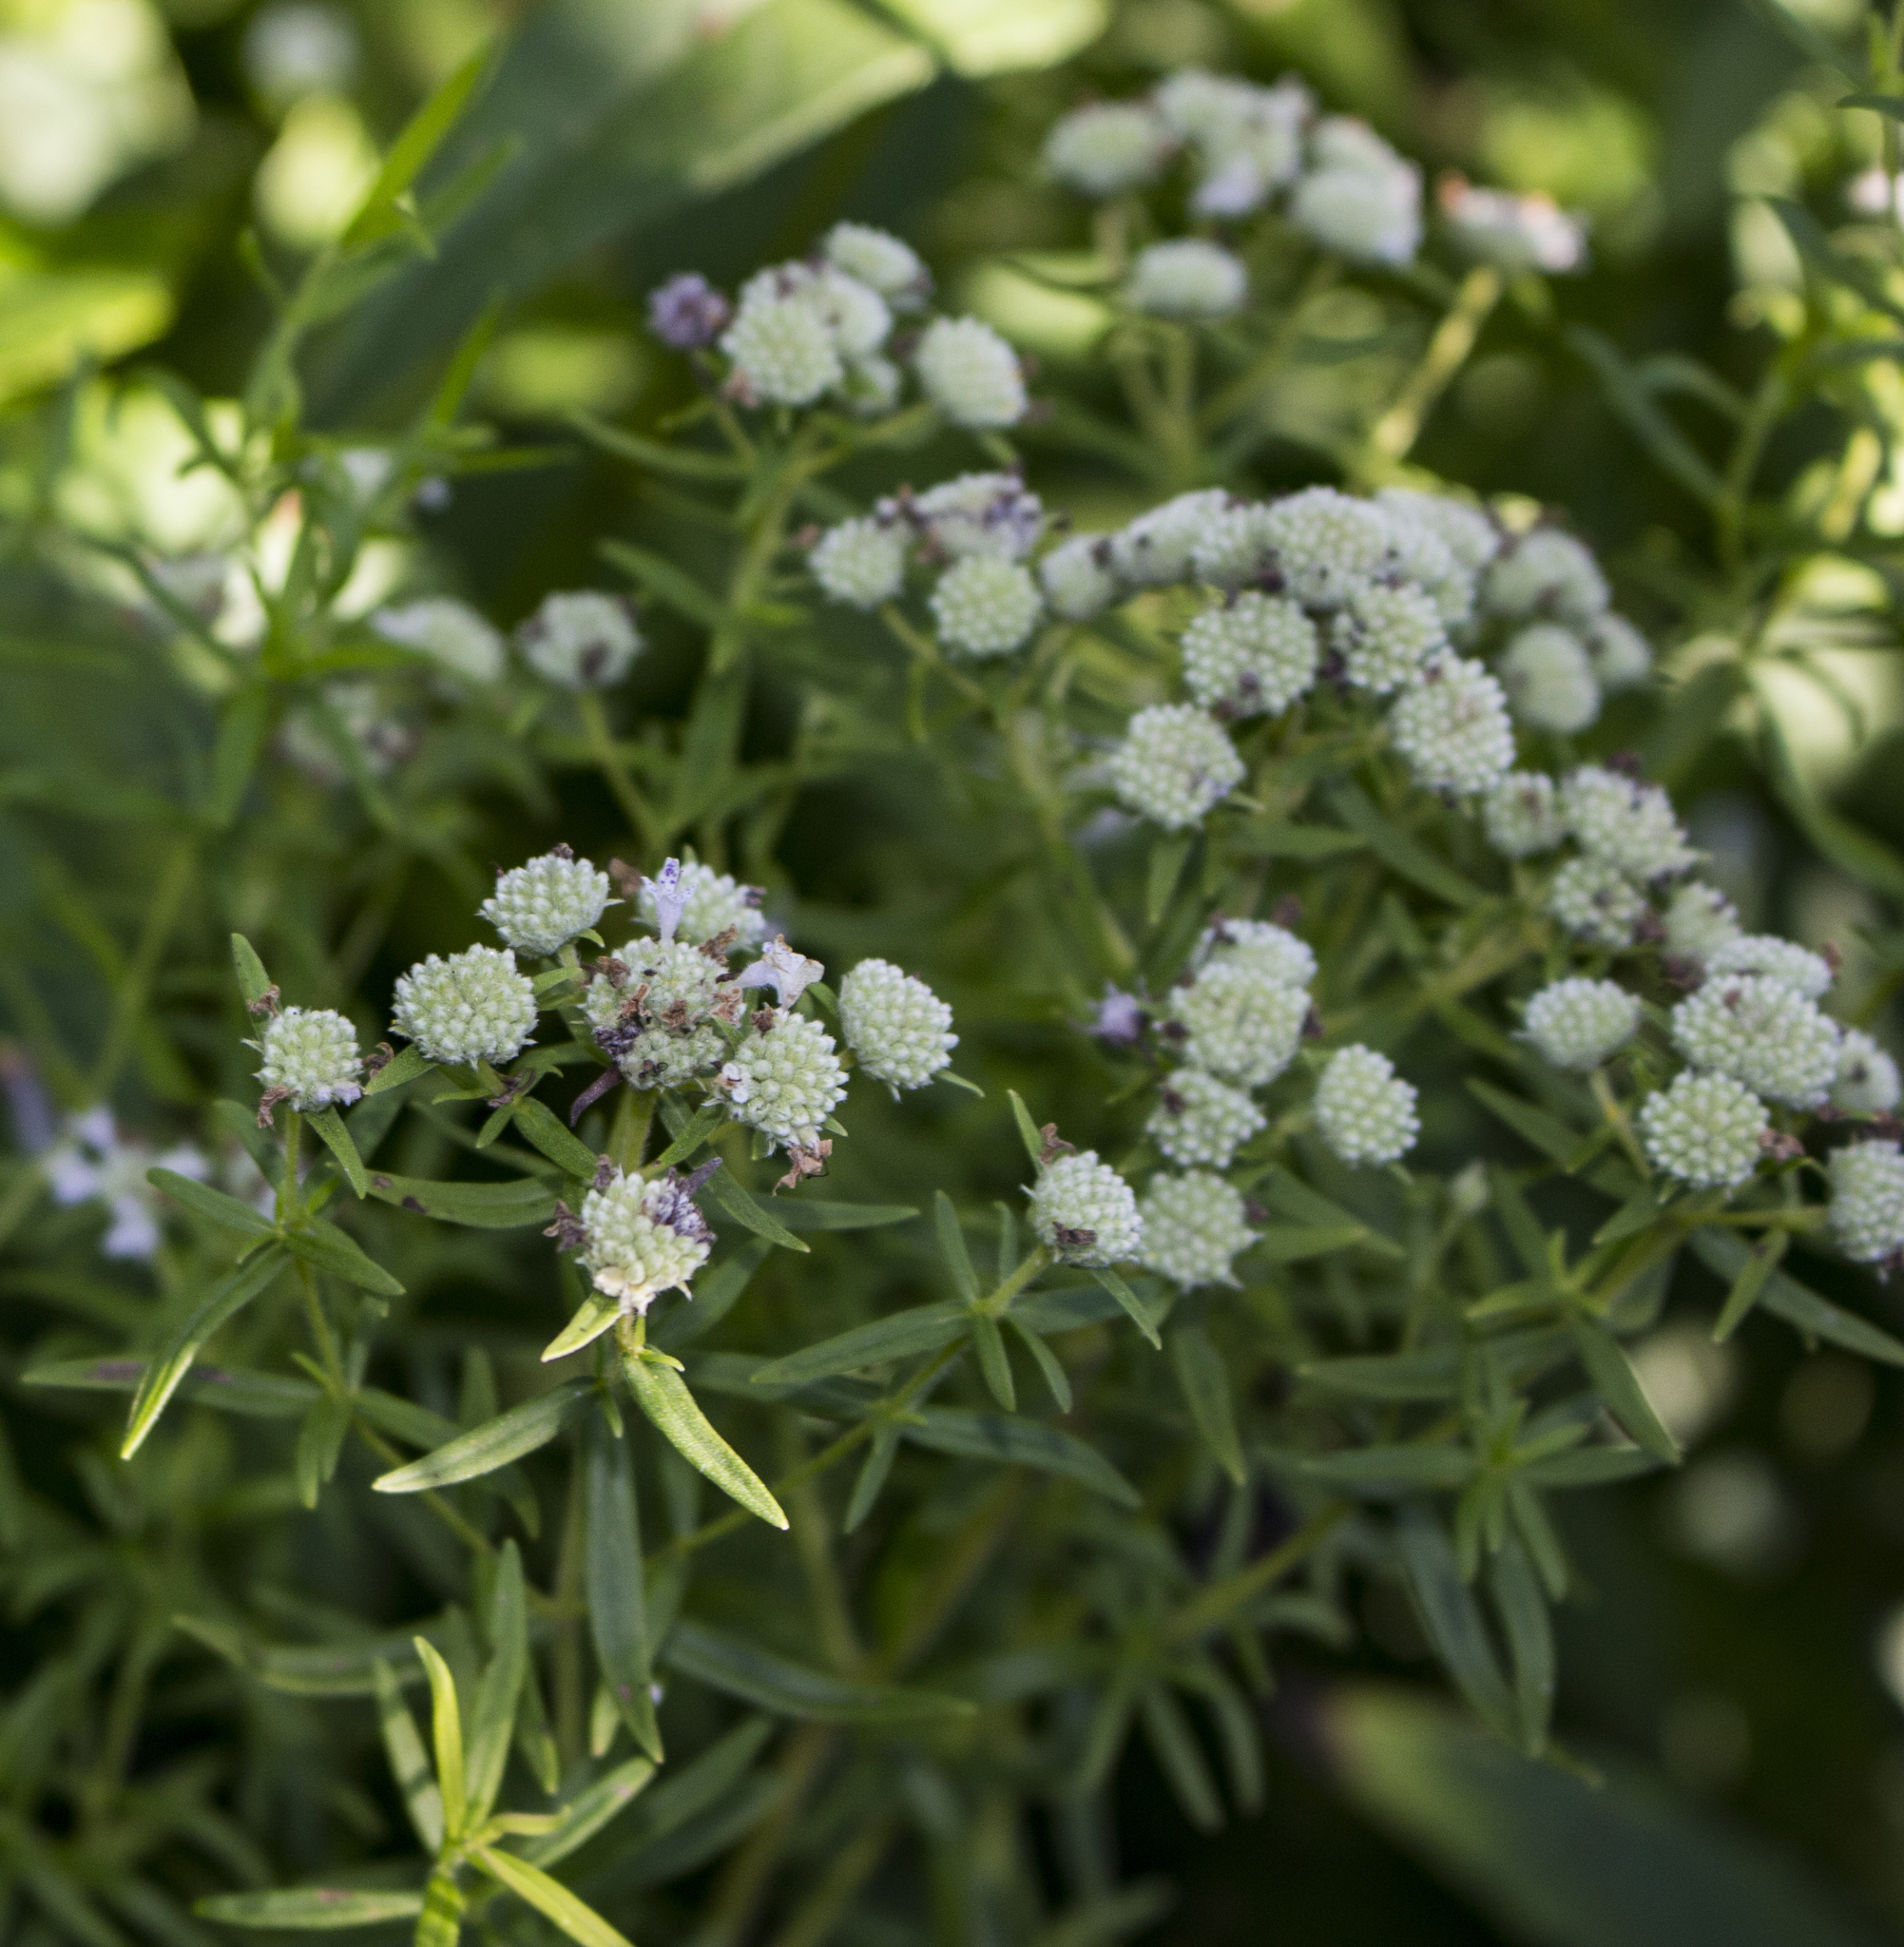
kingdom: Plantae
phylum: Tracheophyta
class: Magnoliopsida
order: Lamiales
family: Lamiaceae
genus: Pycnanthemum
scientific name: Pycnanthemum virginianum
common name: Virginia mountain-mint
